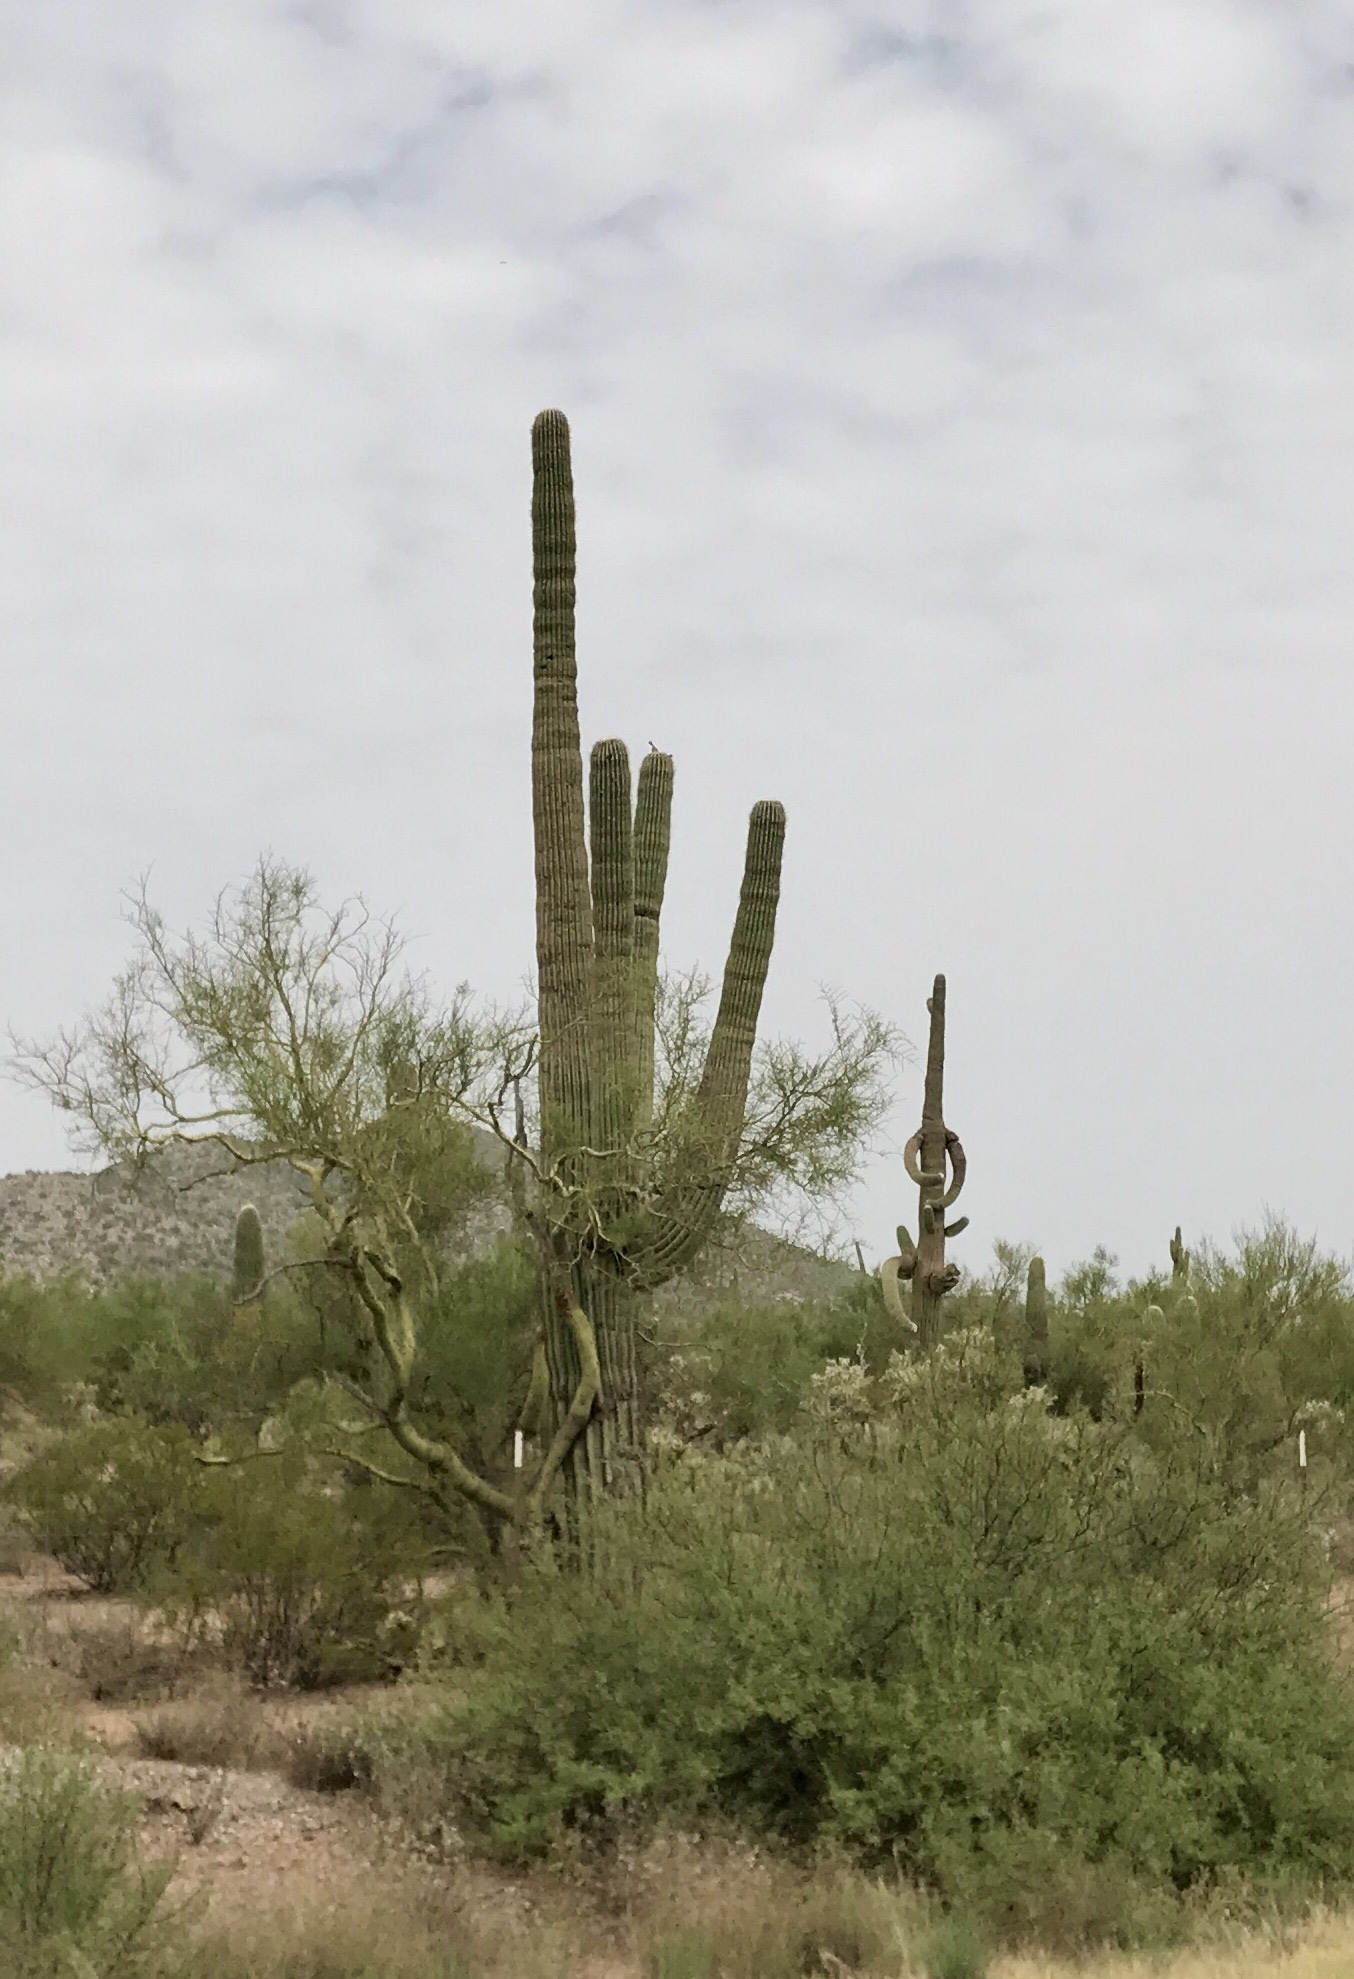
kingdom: Plantae
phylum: Tracheophyta
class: Magnoliopsida
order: Caryophyllales
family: Cactaceae
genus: Carnegiea
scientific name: Carnegiea gigantea
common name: Saguaro
